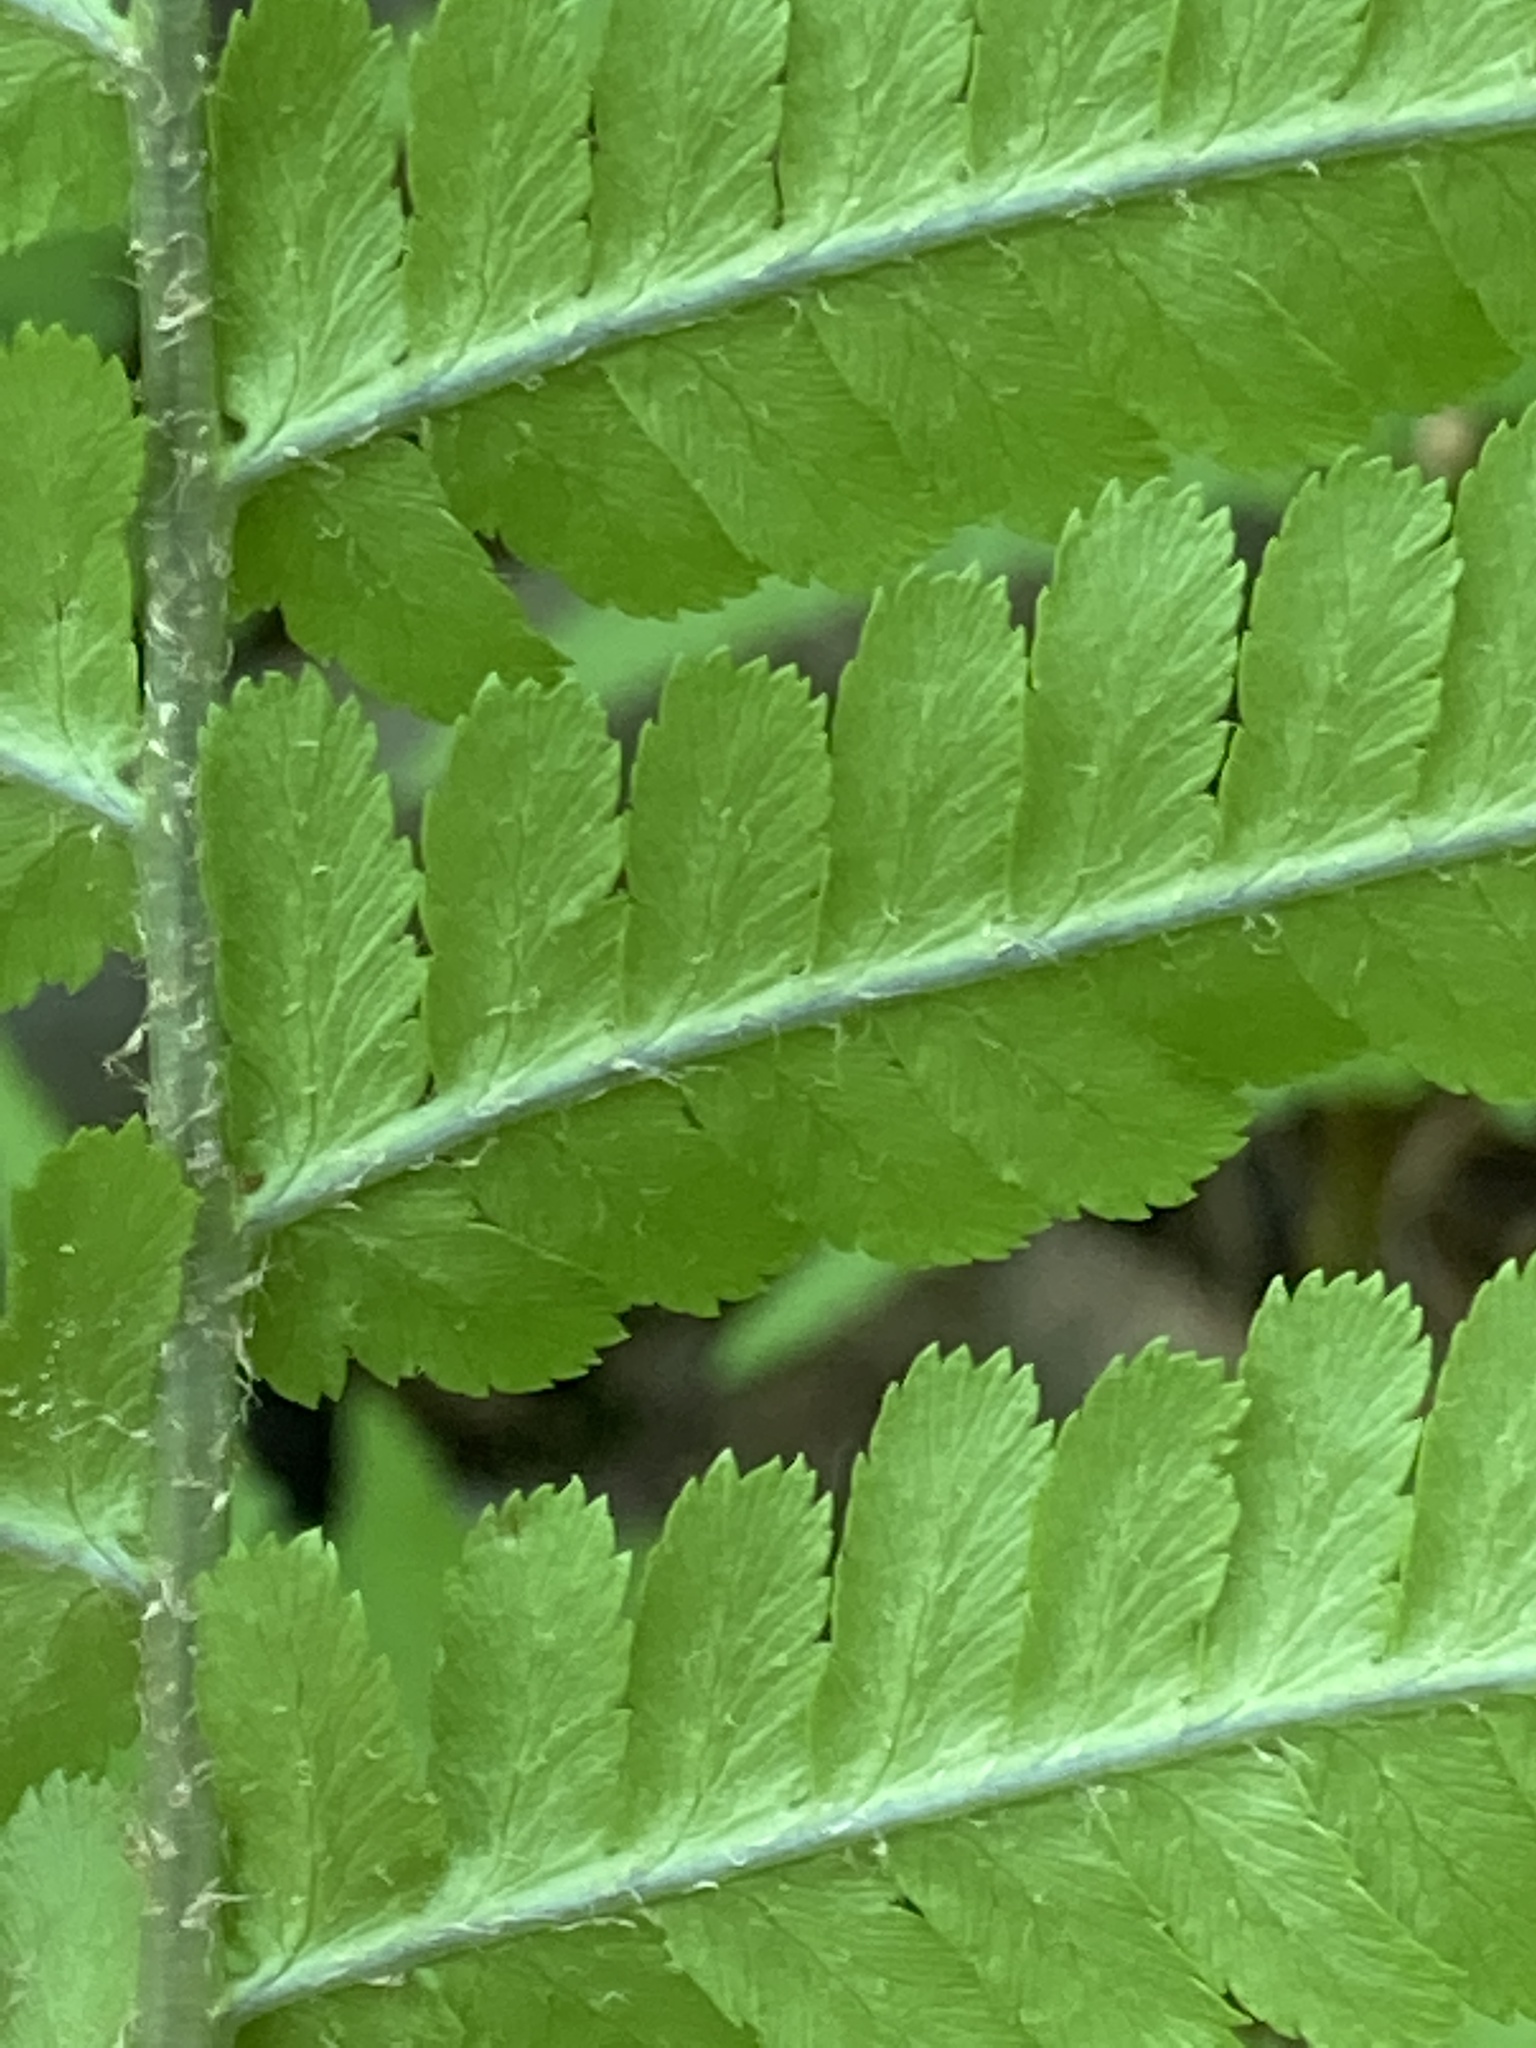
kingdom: Plantae
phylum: Tracheophyta
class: Polypodiopsida
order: Polypodiales
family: Dryopteridaceae
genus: Dryopteris
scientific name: Dryopteris filix-mas
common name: Male fern
